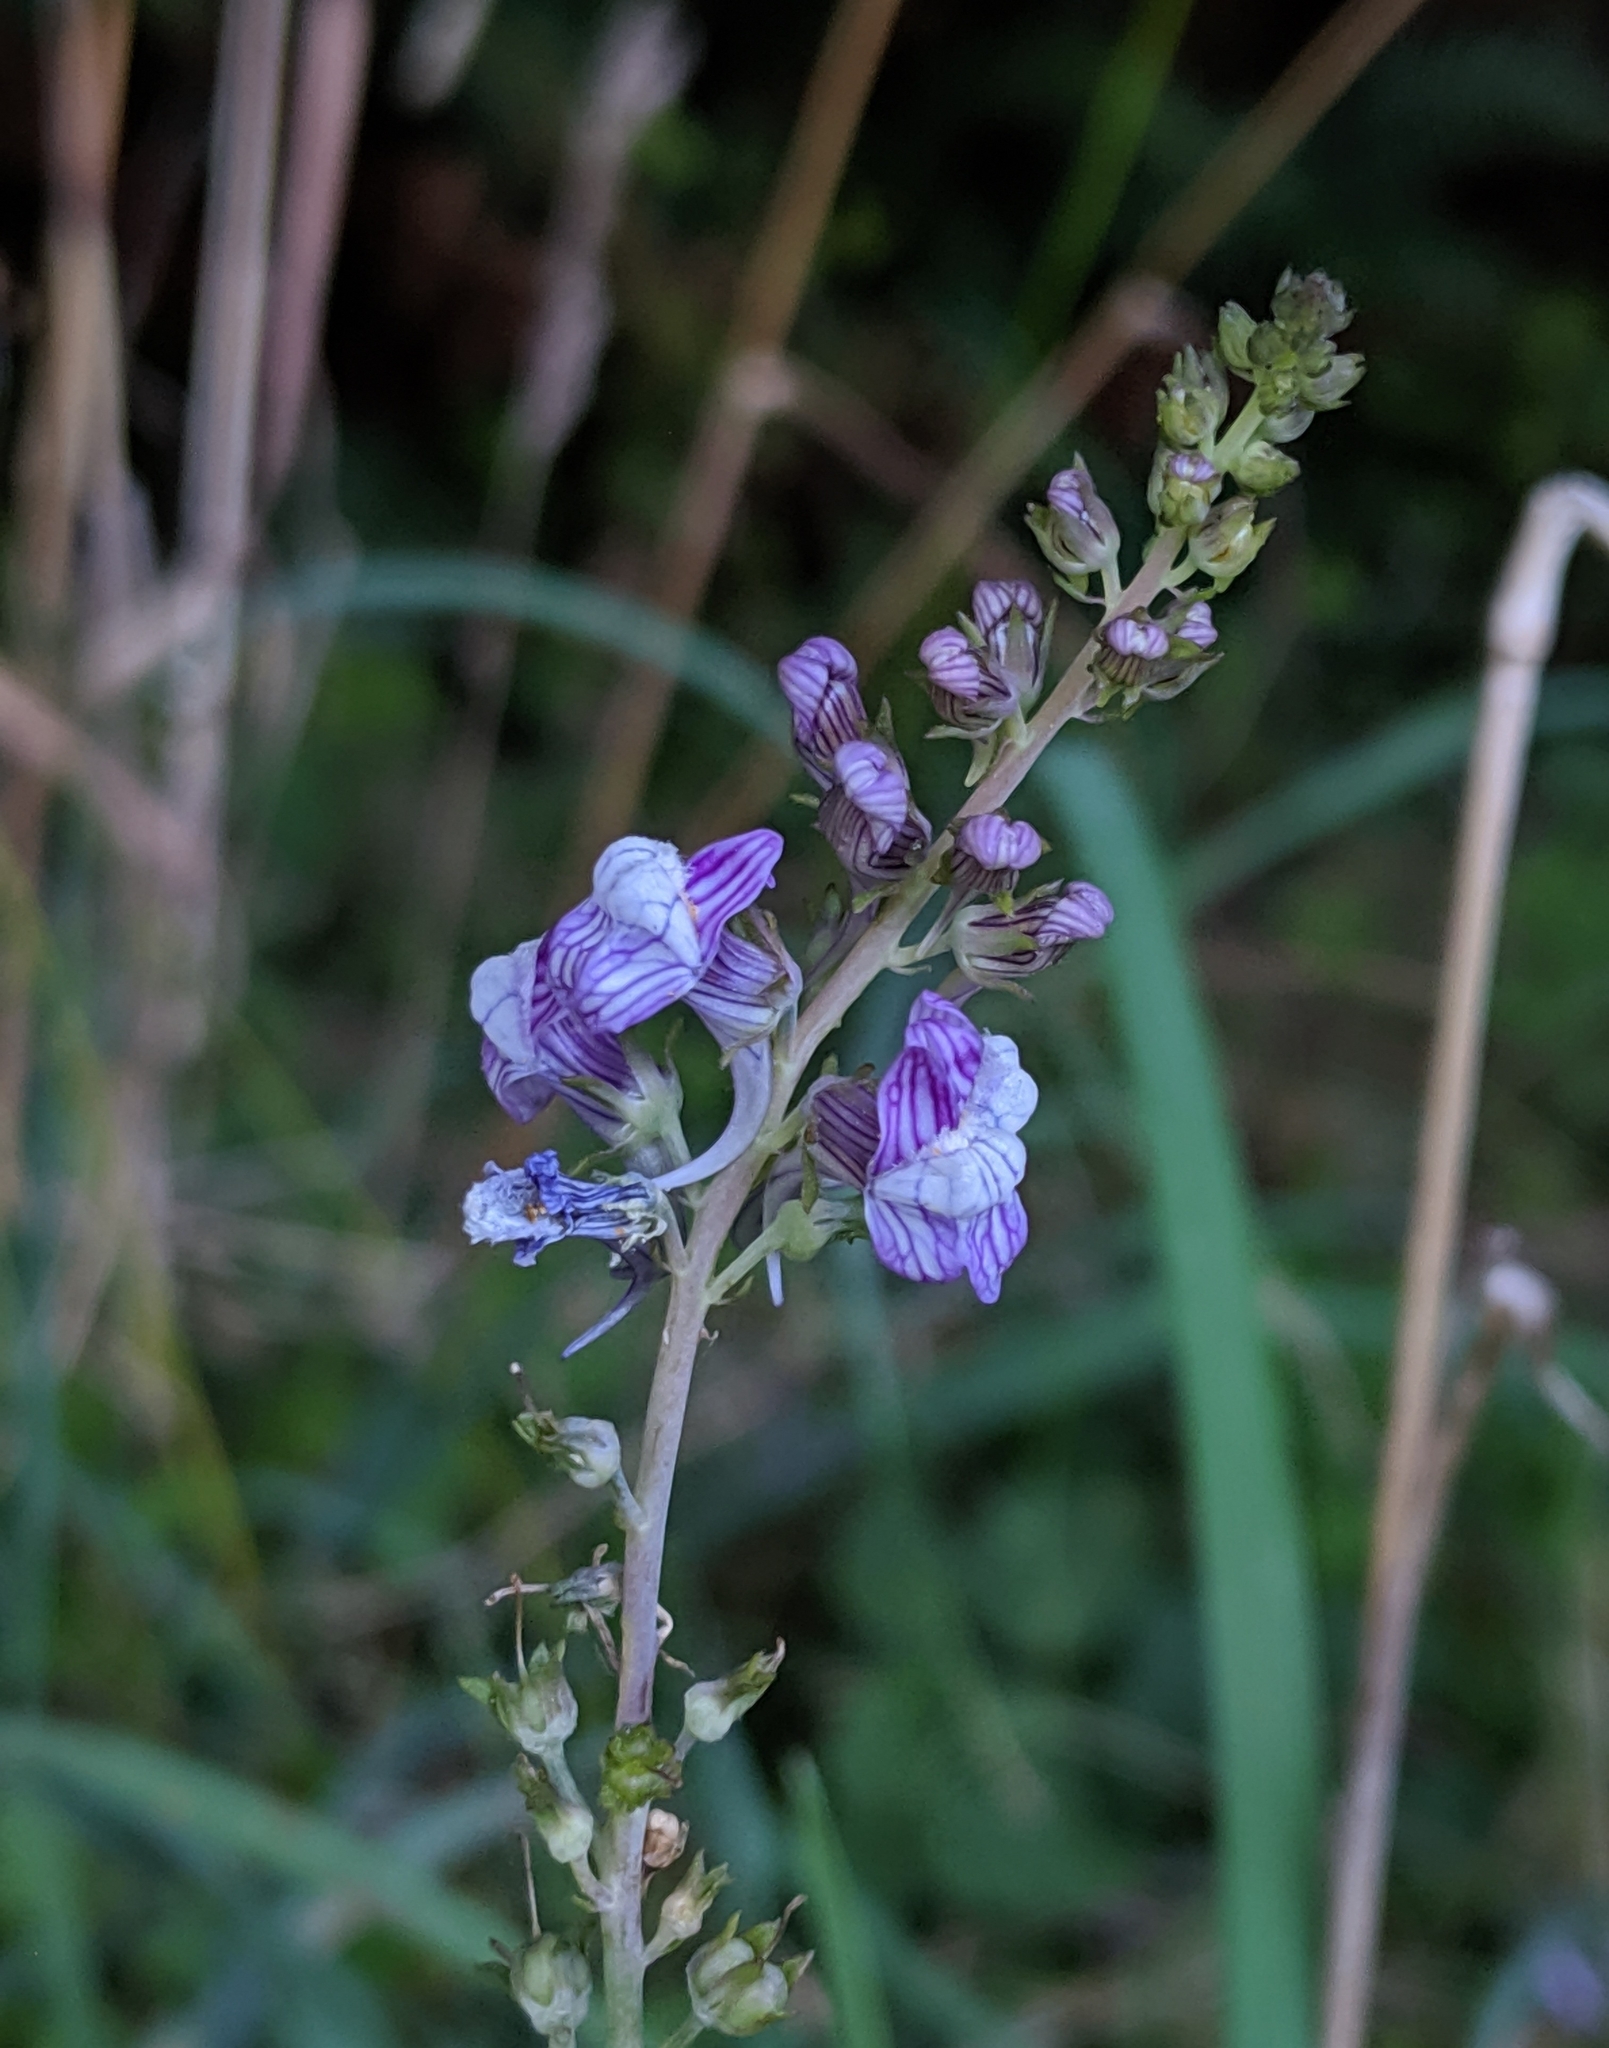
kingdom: Plantae
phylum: Tracheophyta
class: Magnoliopsida
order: Lamiales
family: Plantaginaceae
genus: Linaria
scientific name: Linaria purpurea
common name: Purple toadflax
